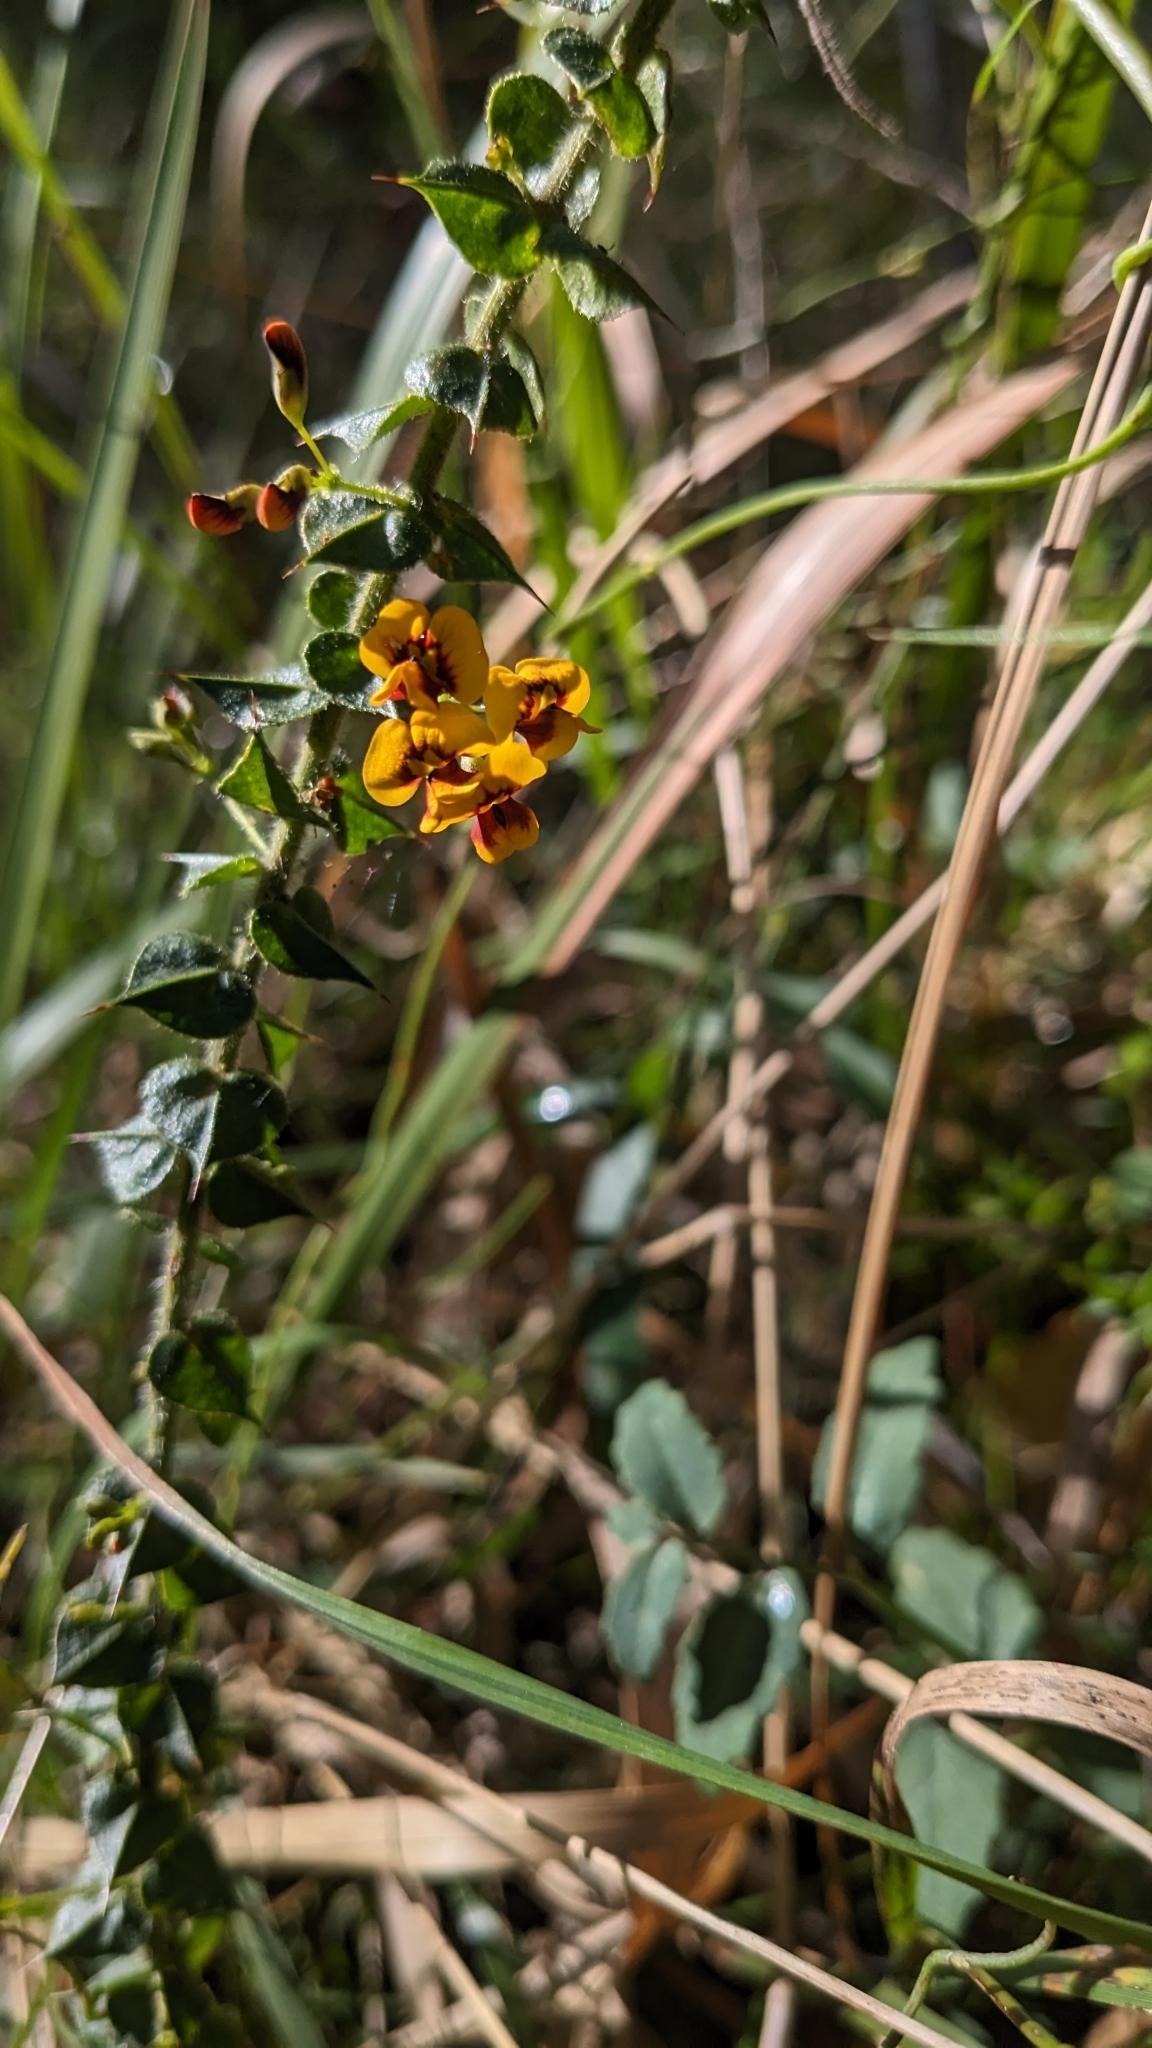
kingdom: Plantae
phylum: Tracheophyta
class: Magnoliopsida
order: Fabales
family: Fabaceae
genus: Daviesia
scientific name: Daviesia squarrosa
